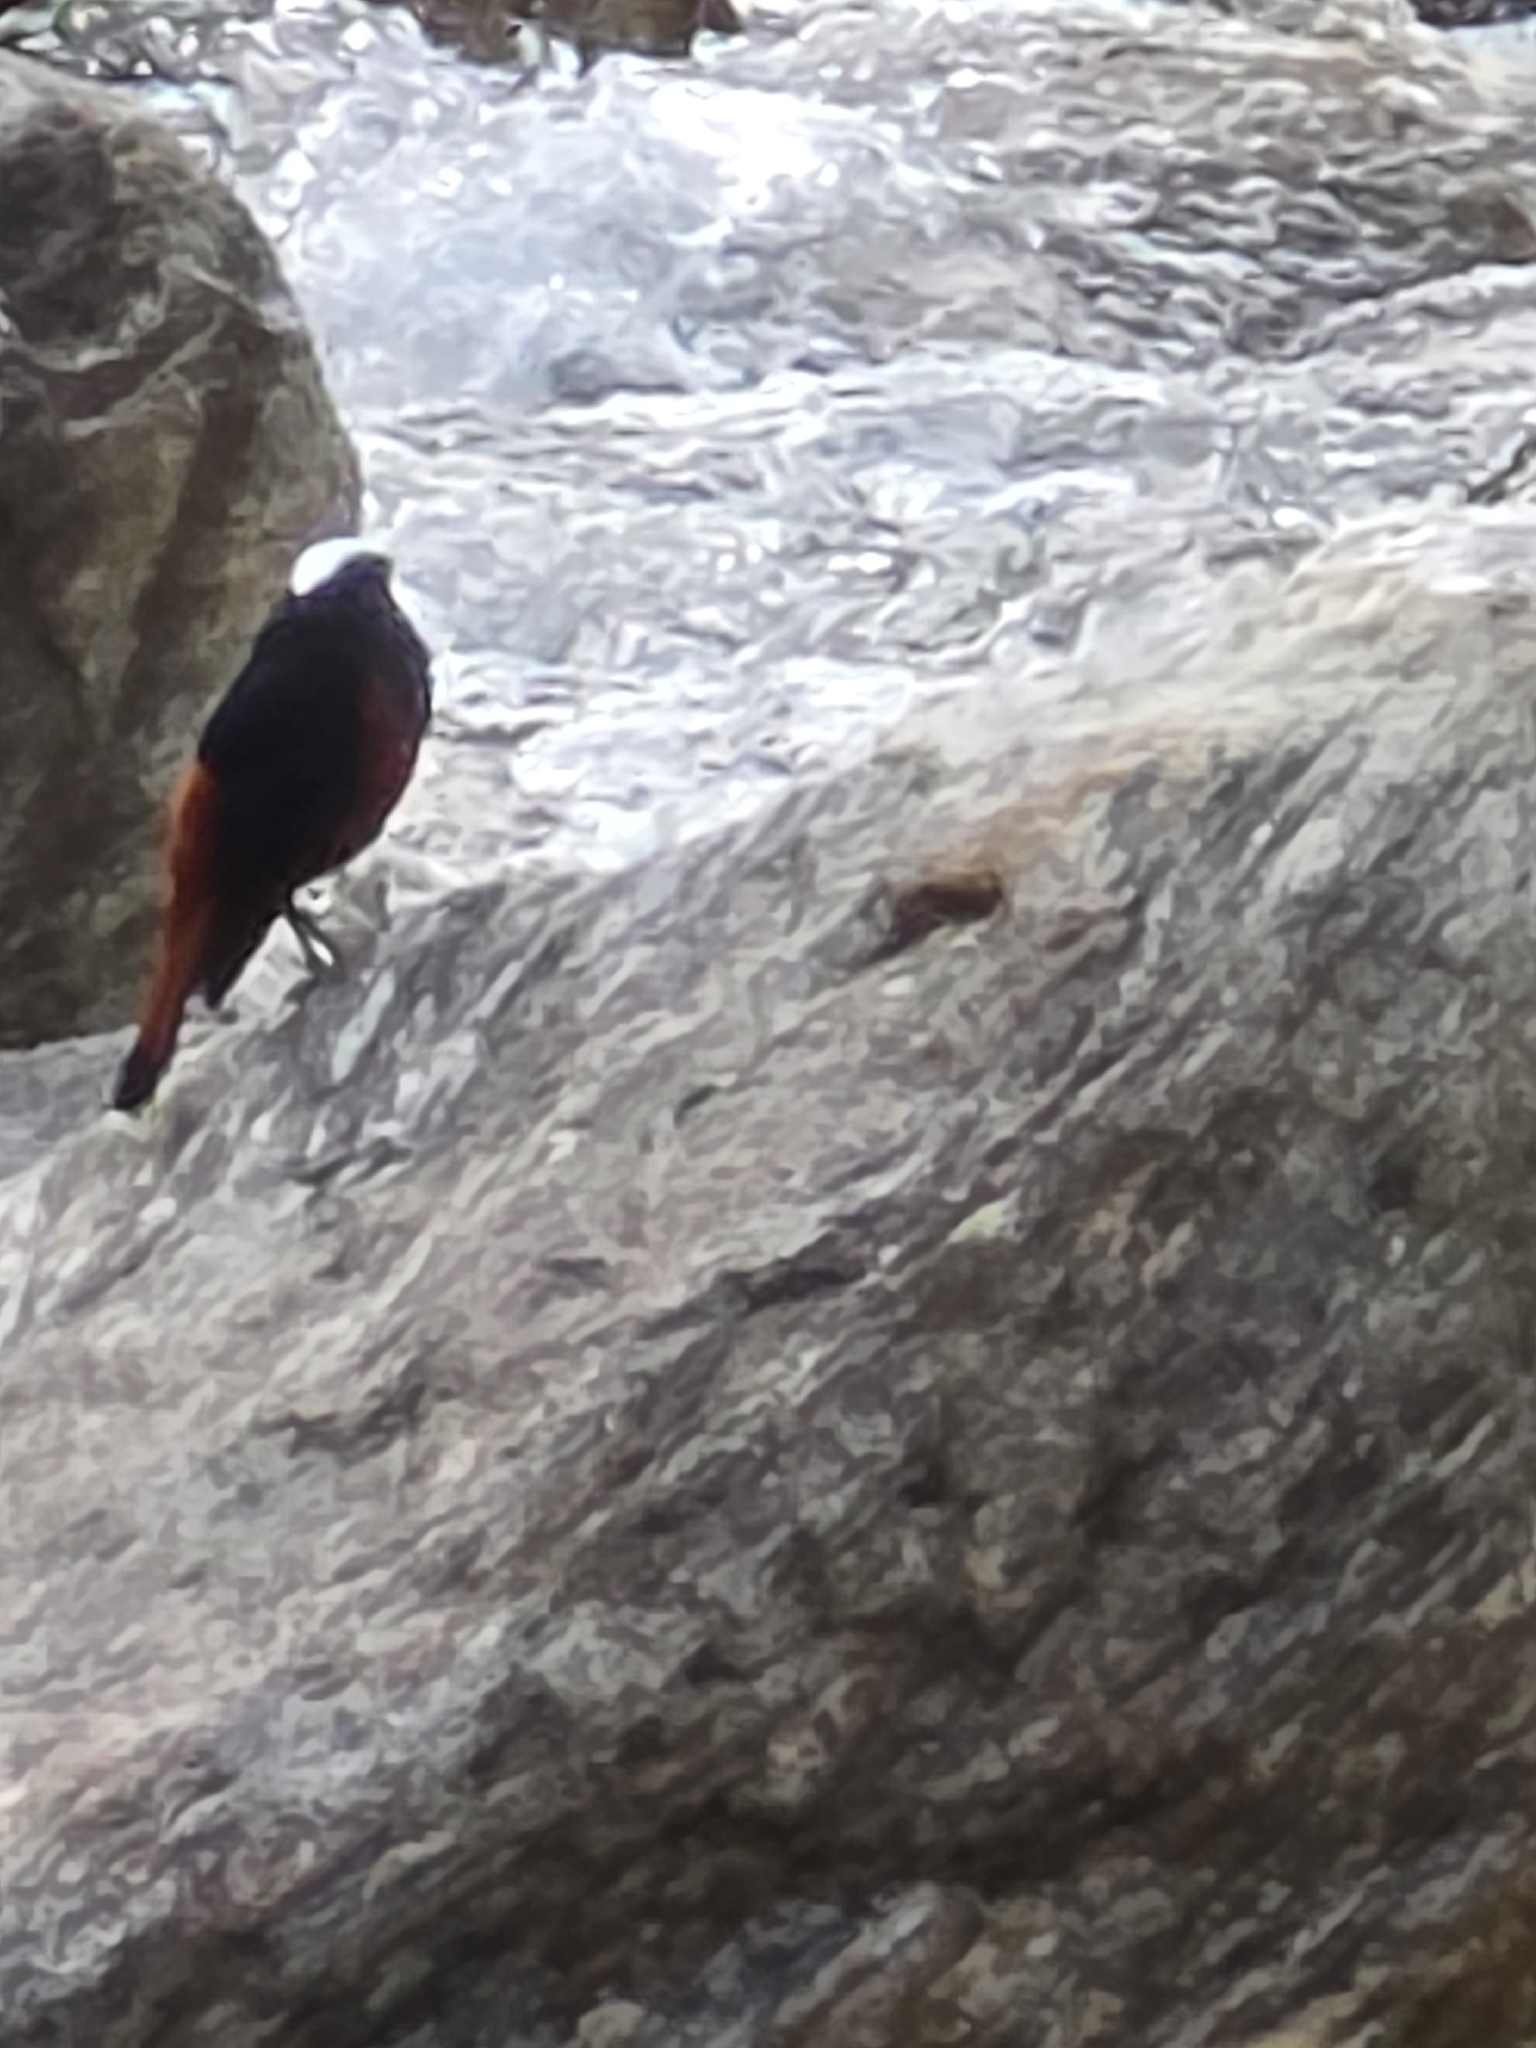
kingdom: Animalia
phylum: Chordata
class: Aves
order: Passeriformes
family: Muscicapidae
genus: Chaimarrornis
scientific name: Chaimarrornis leucocephalus
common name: White-capped redstart
